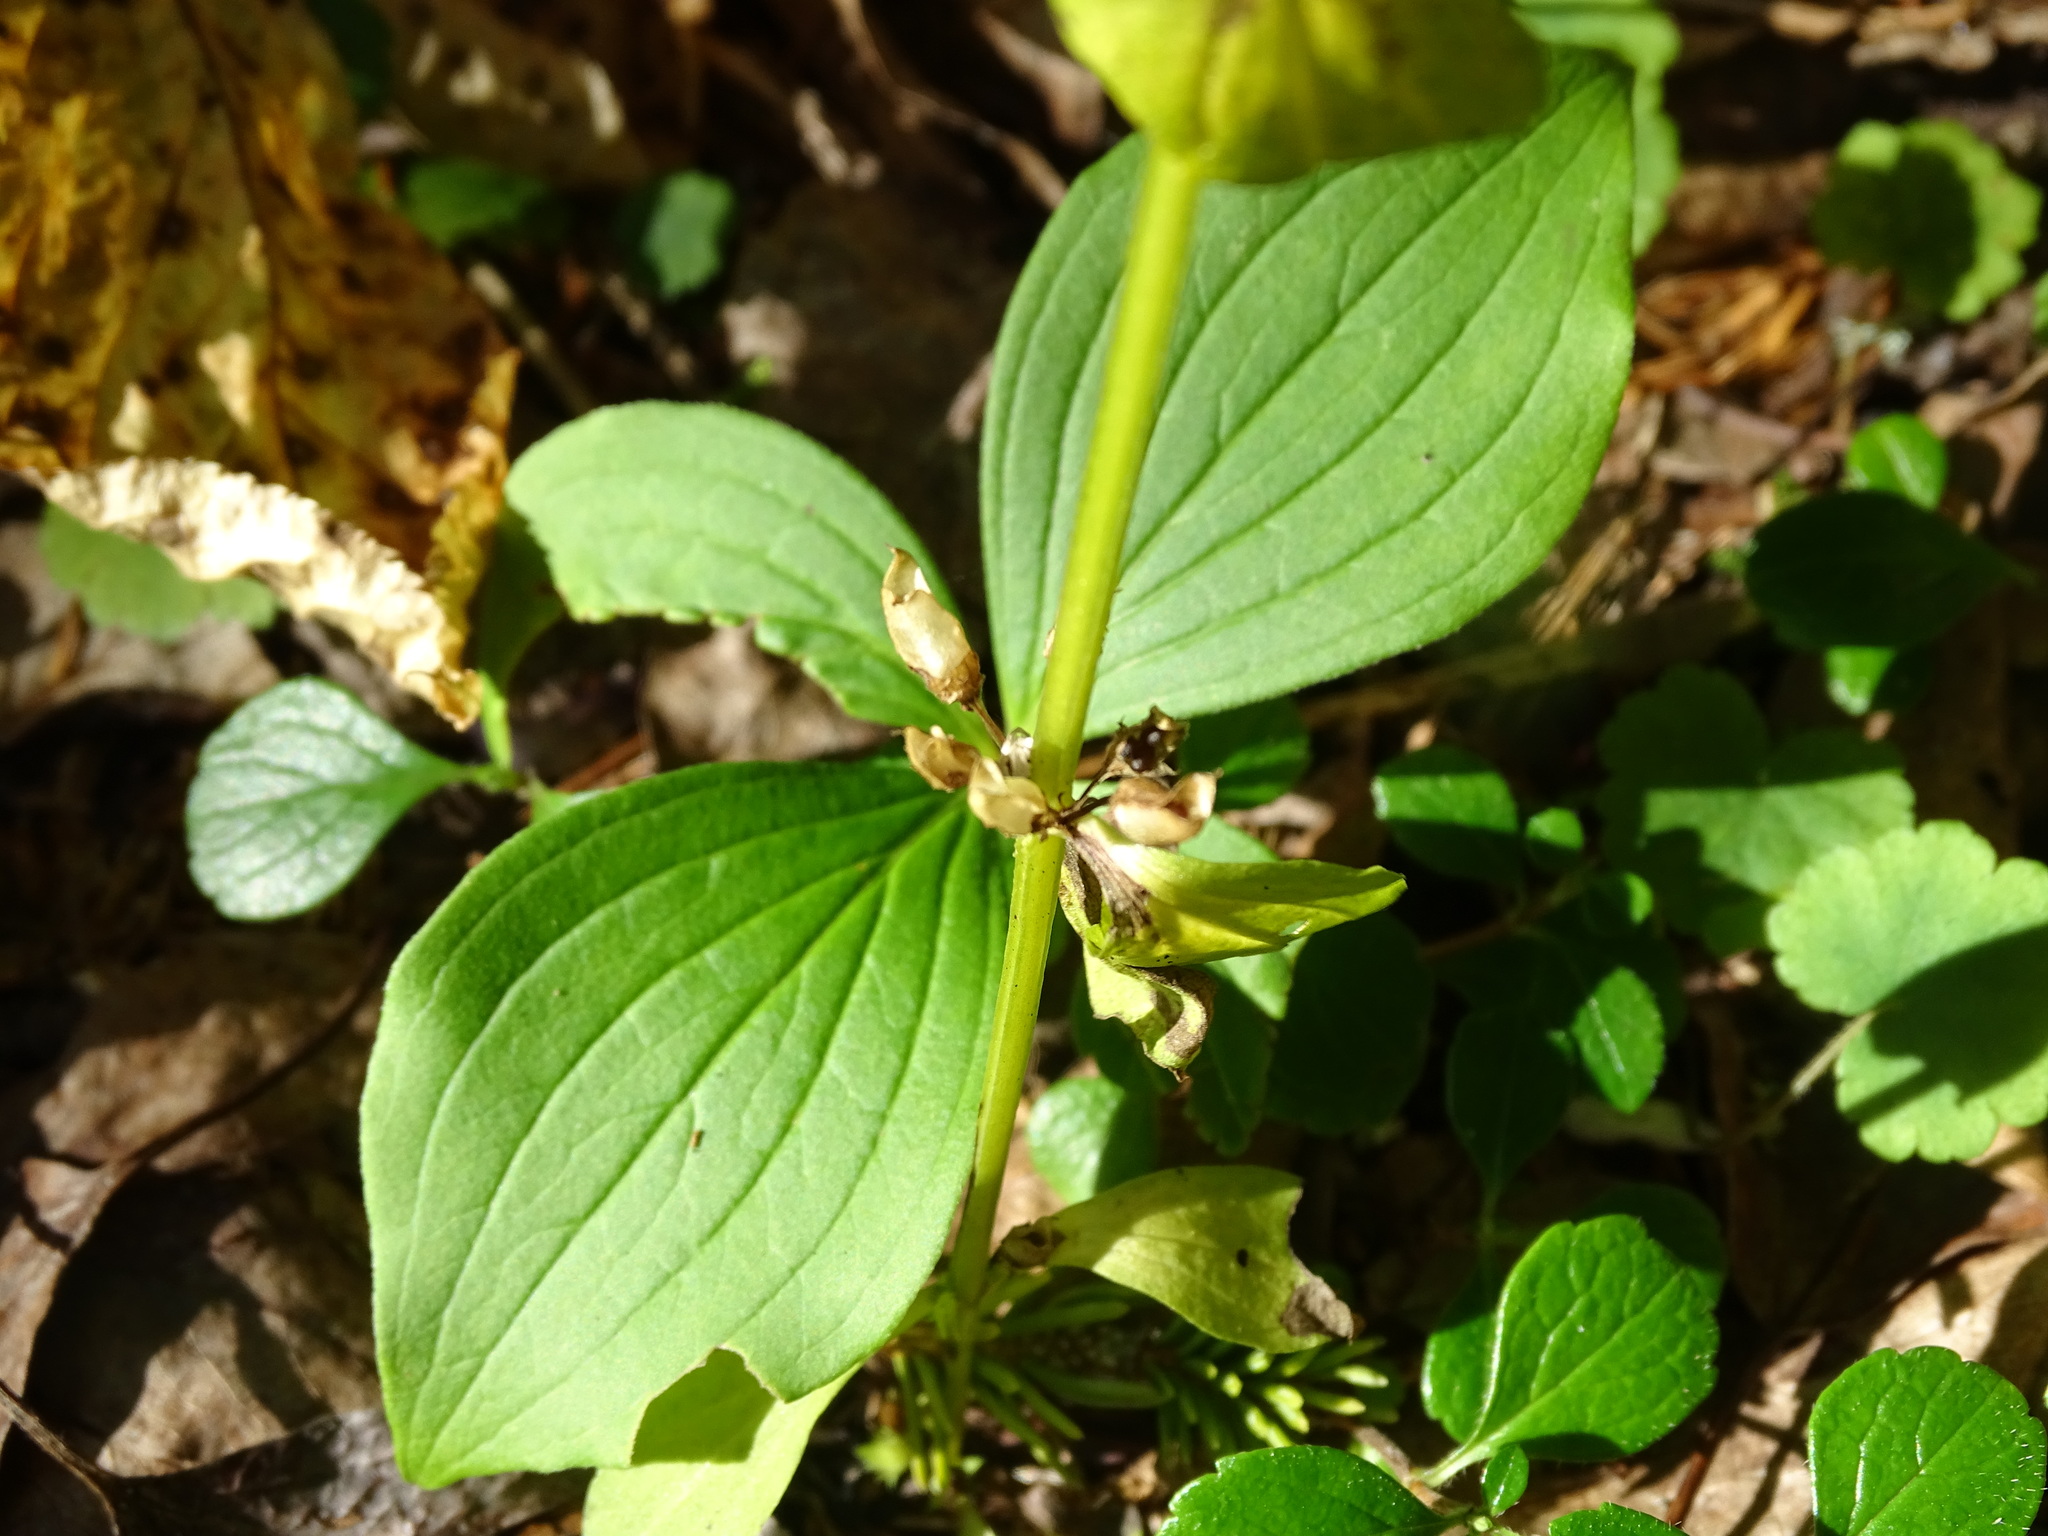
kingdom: Plantae
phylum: Tracheophyta
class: Magnoliopsida
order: Gentianales
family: Gentianaceae
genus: Halenia
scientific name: Halenia deflexa
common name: American spurred gentian
